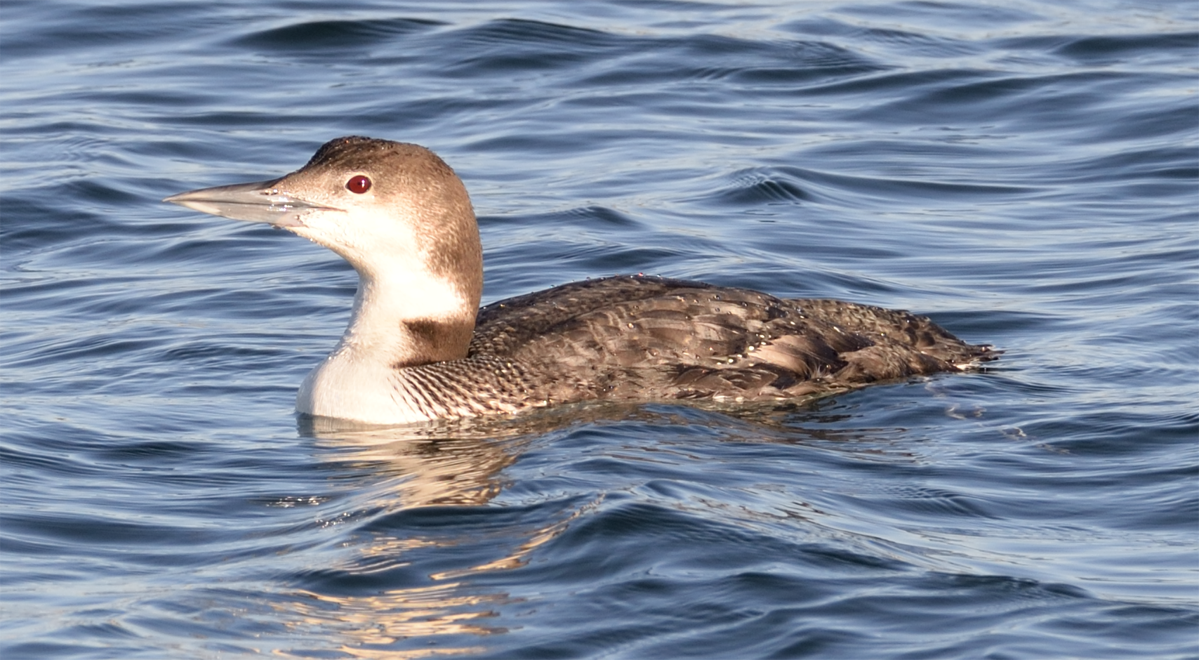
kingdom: Animalia
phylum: Chordata
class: Aves
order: Gaviiformes
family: Gaviidae
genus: Gavia
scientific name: Gavia immer
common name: Common loon
